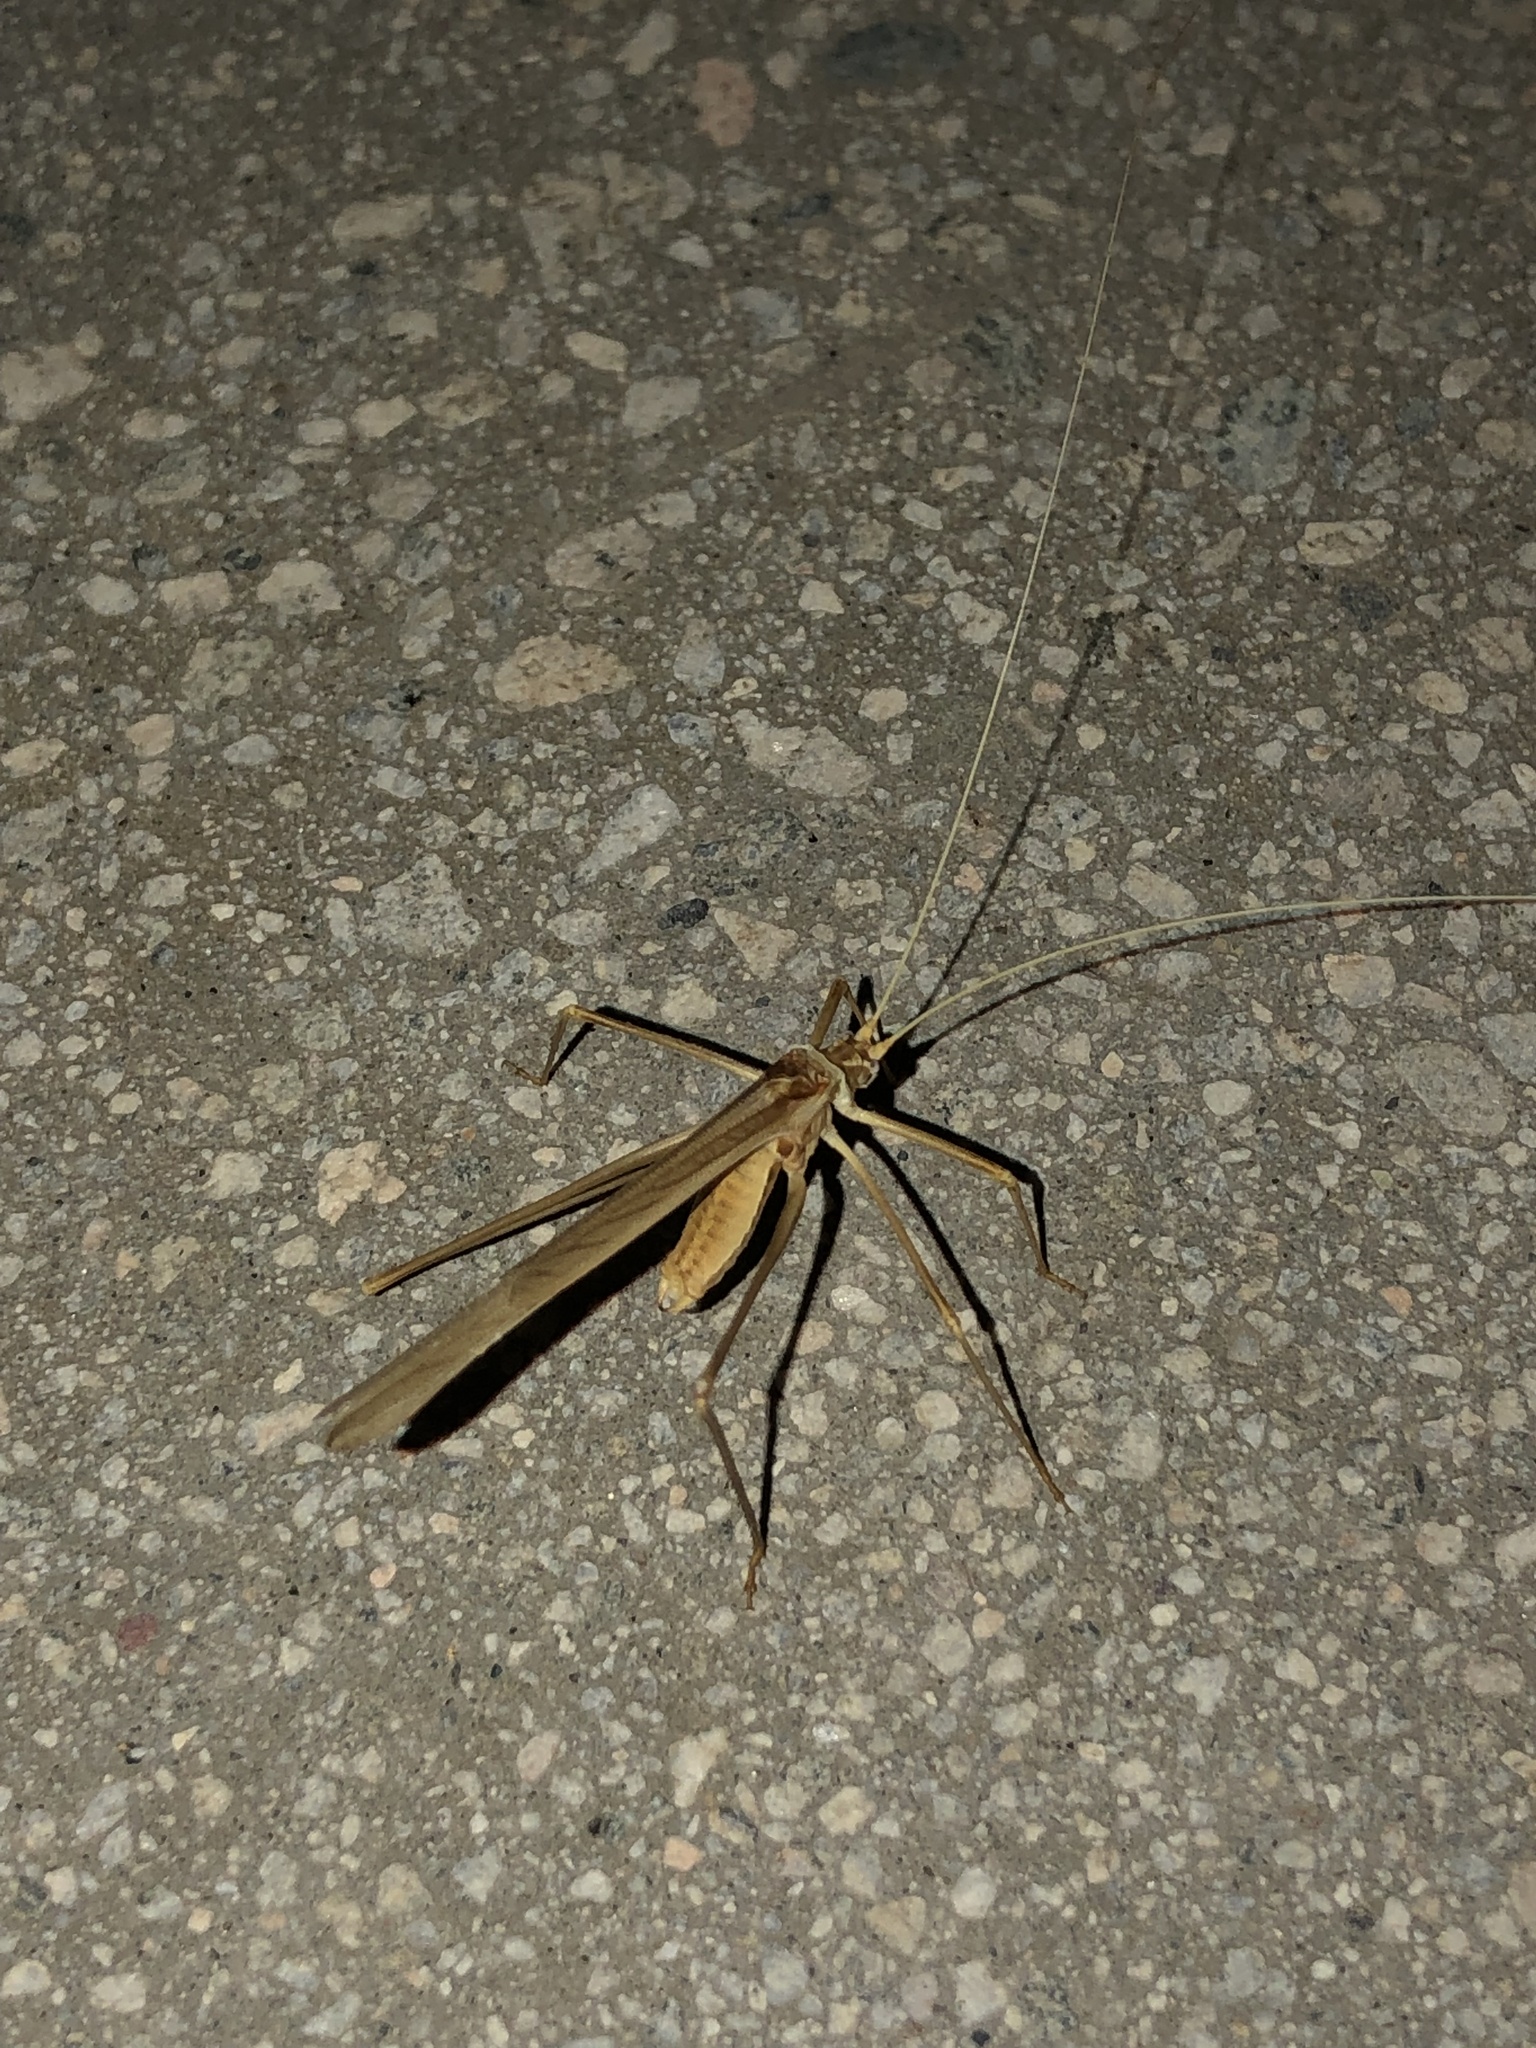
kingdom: Animalia
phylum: Arthropoda
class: Insecta
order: Orthoptera
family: Tettigoniidae
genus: Arethaea
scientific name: Arethaea brevicauda
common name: Short-tail thread-legged katydid
